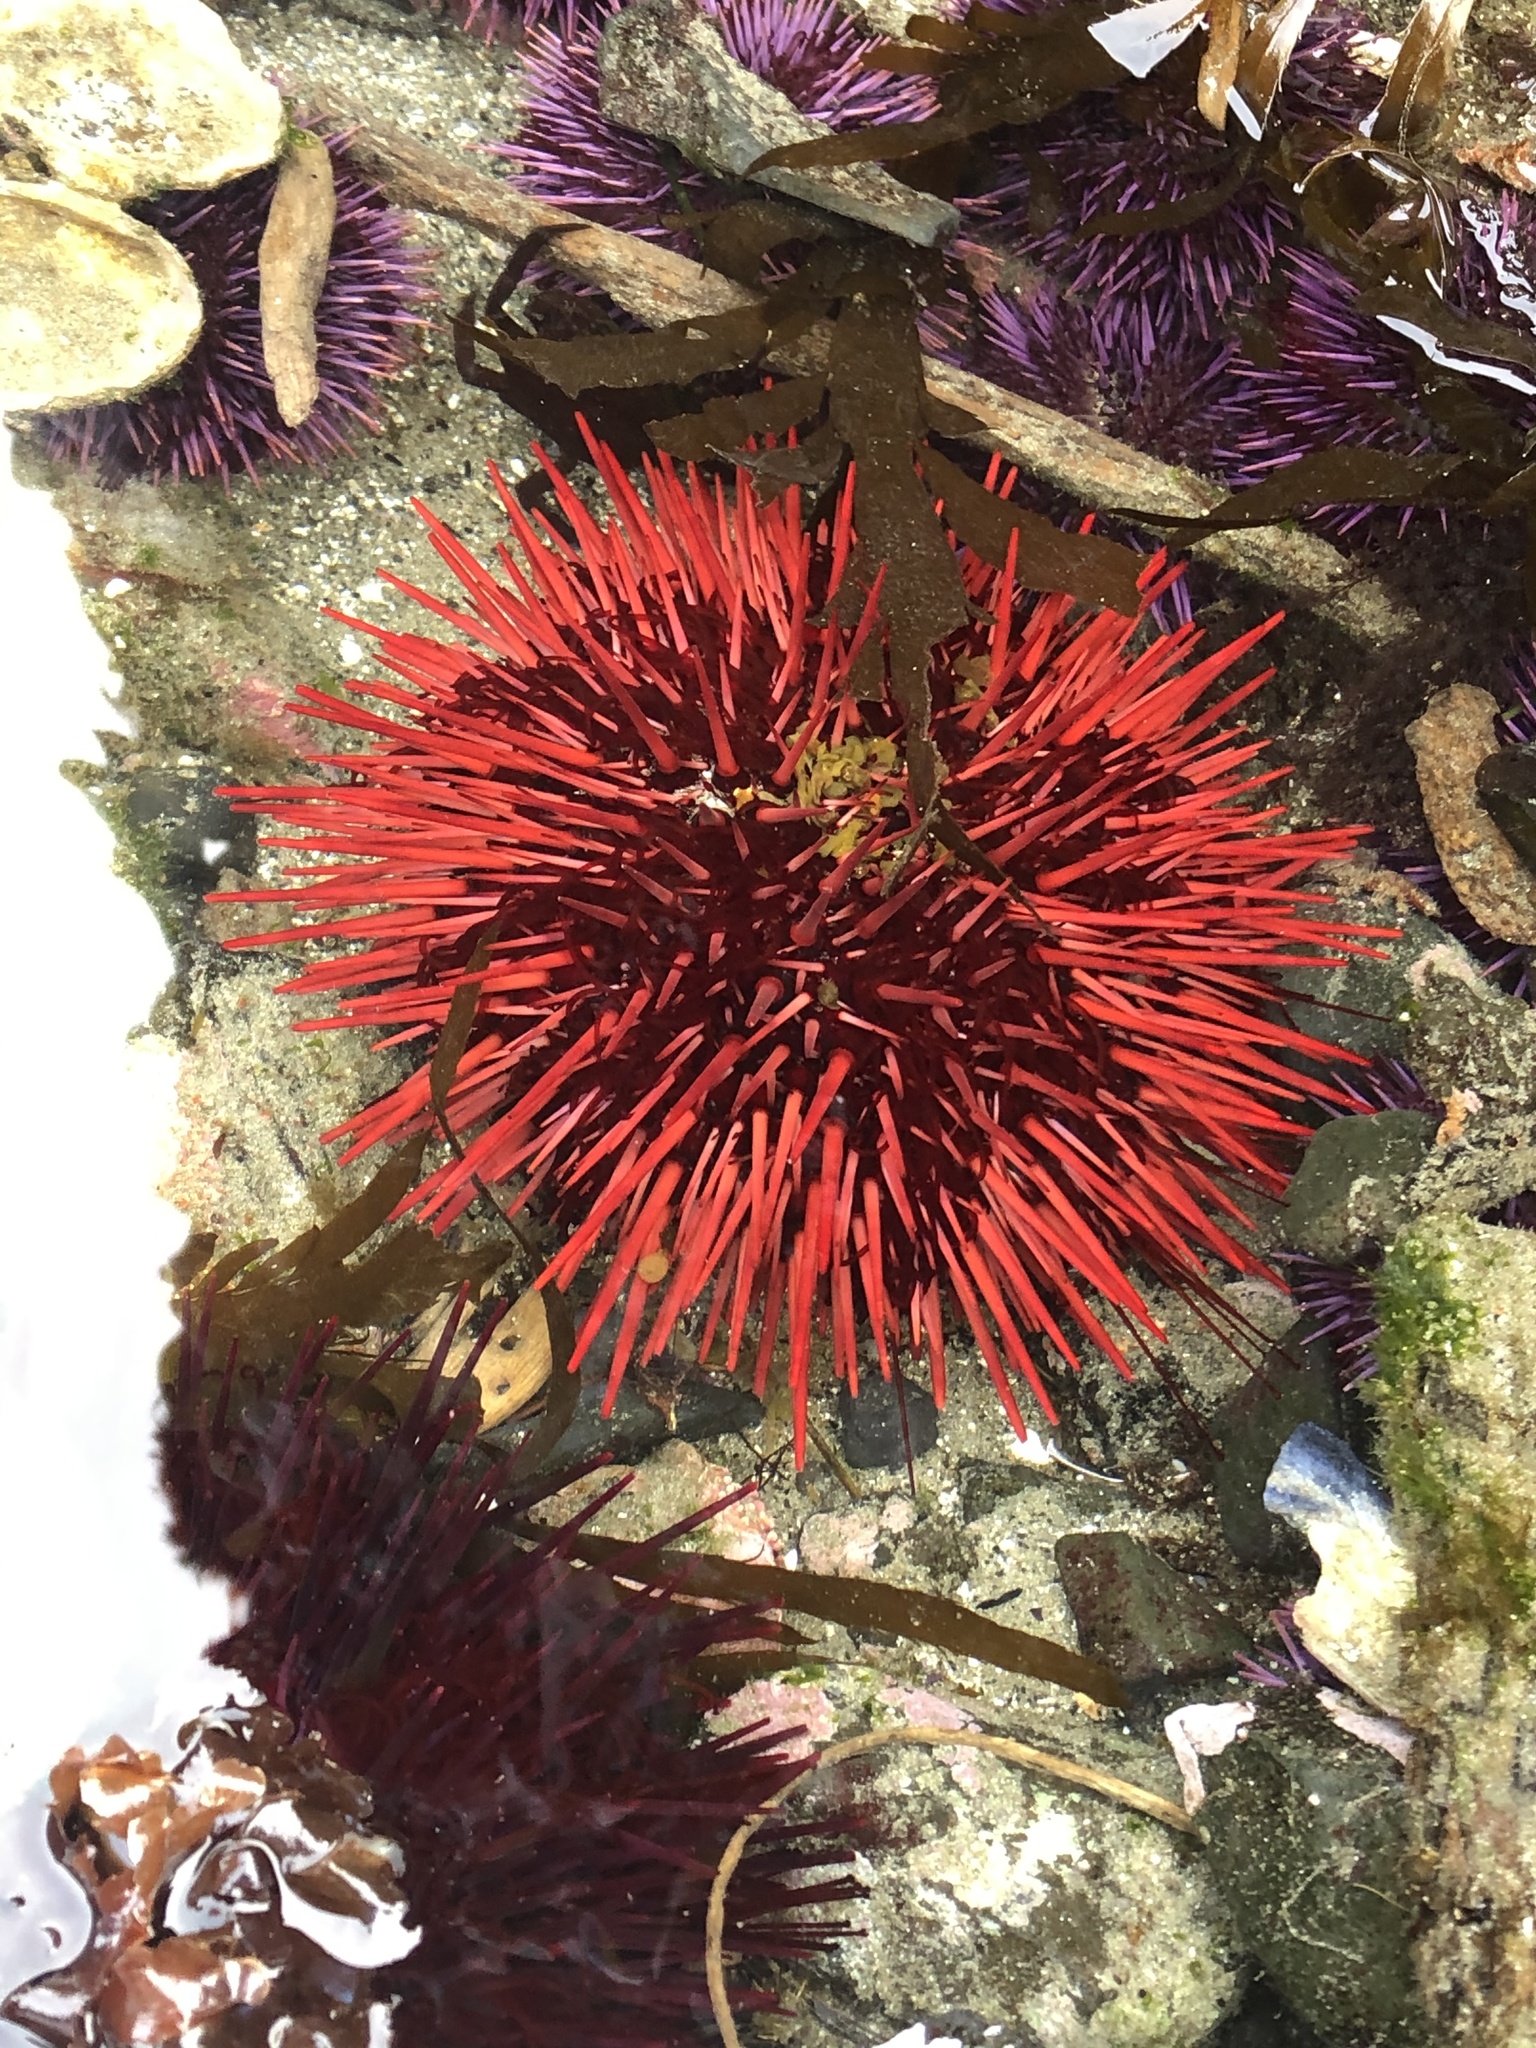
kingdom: Animalia
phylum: Echinodermata
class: Echinoidea
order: Camarodonta
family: Strongylocentrotidae
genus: Mesocentrotus
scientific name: Mesocentrotus franciscanus
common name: Red sea urchin
